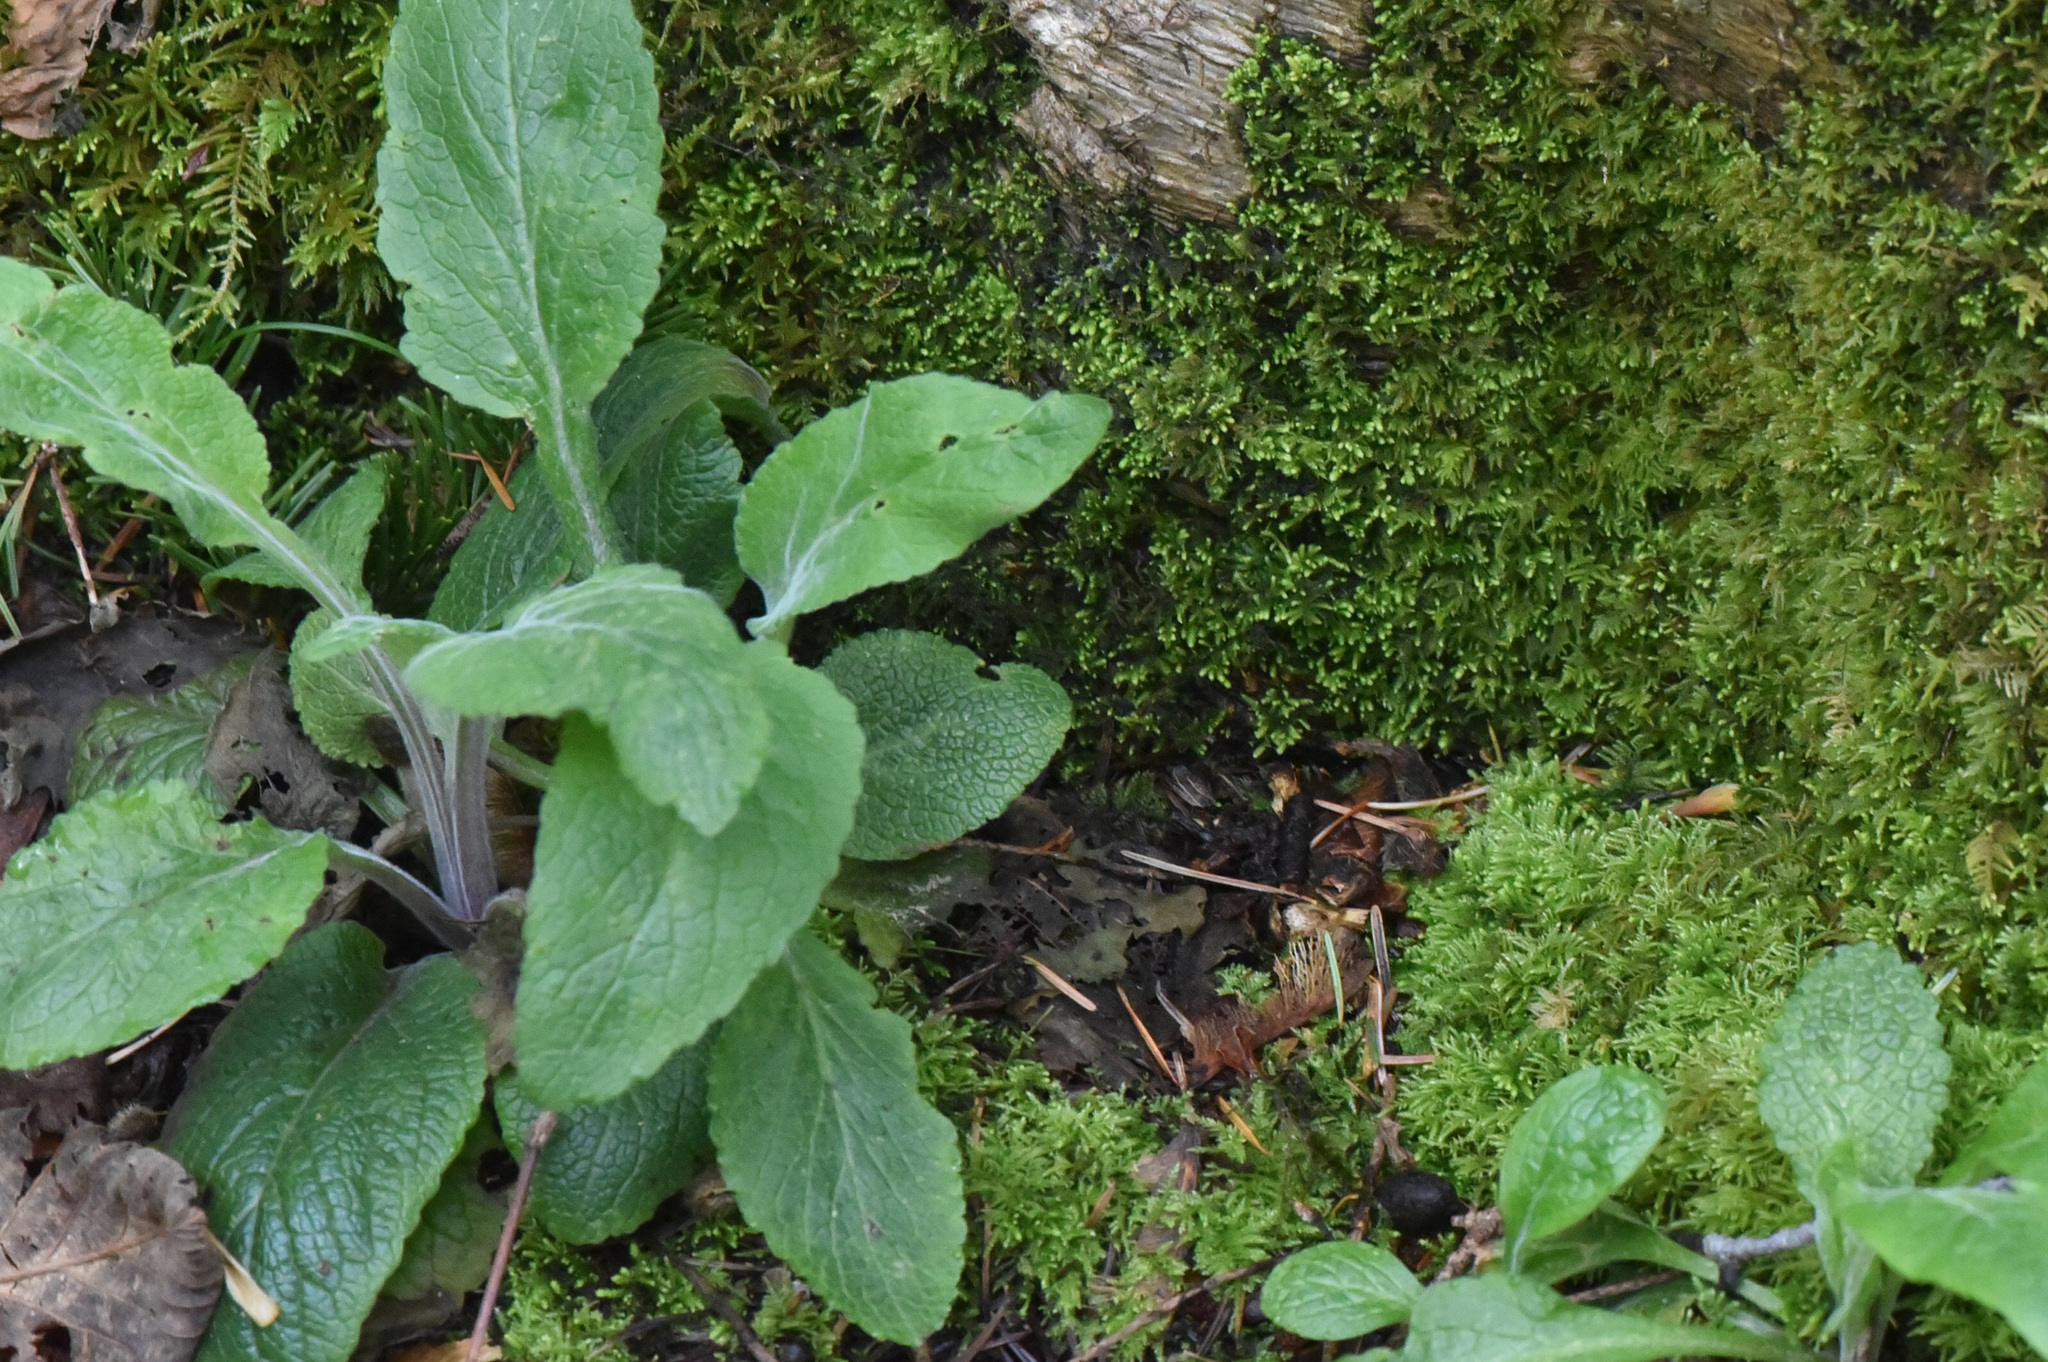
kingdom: Plantae
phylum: Tracheophyta
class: Magnoliopsida
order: Lamiales
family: Plantaginaceae
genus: Digitalis
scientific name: Digitalis purpurea
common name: Foxglove
